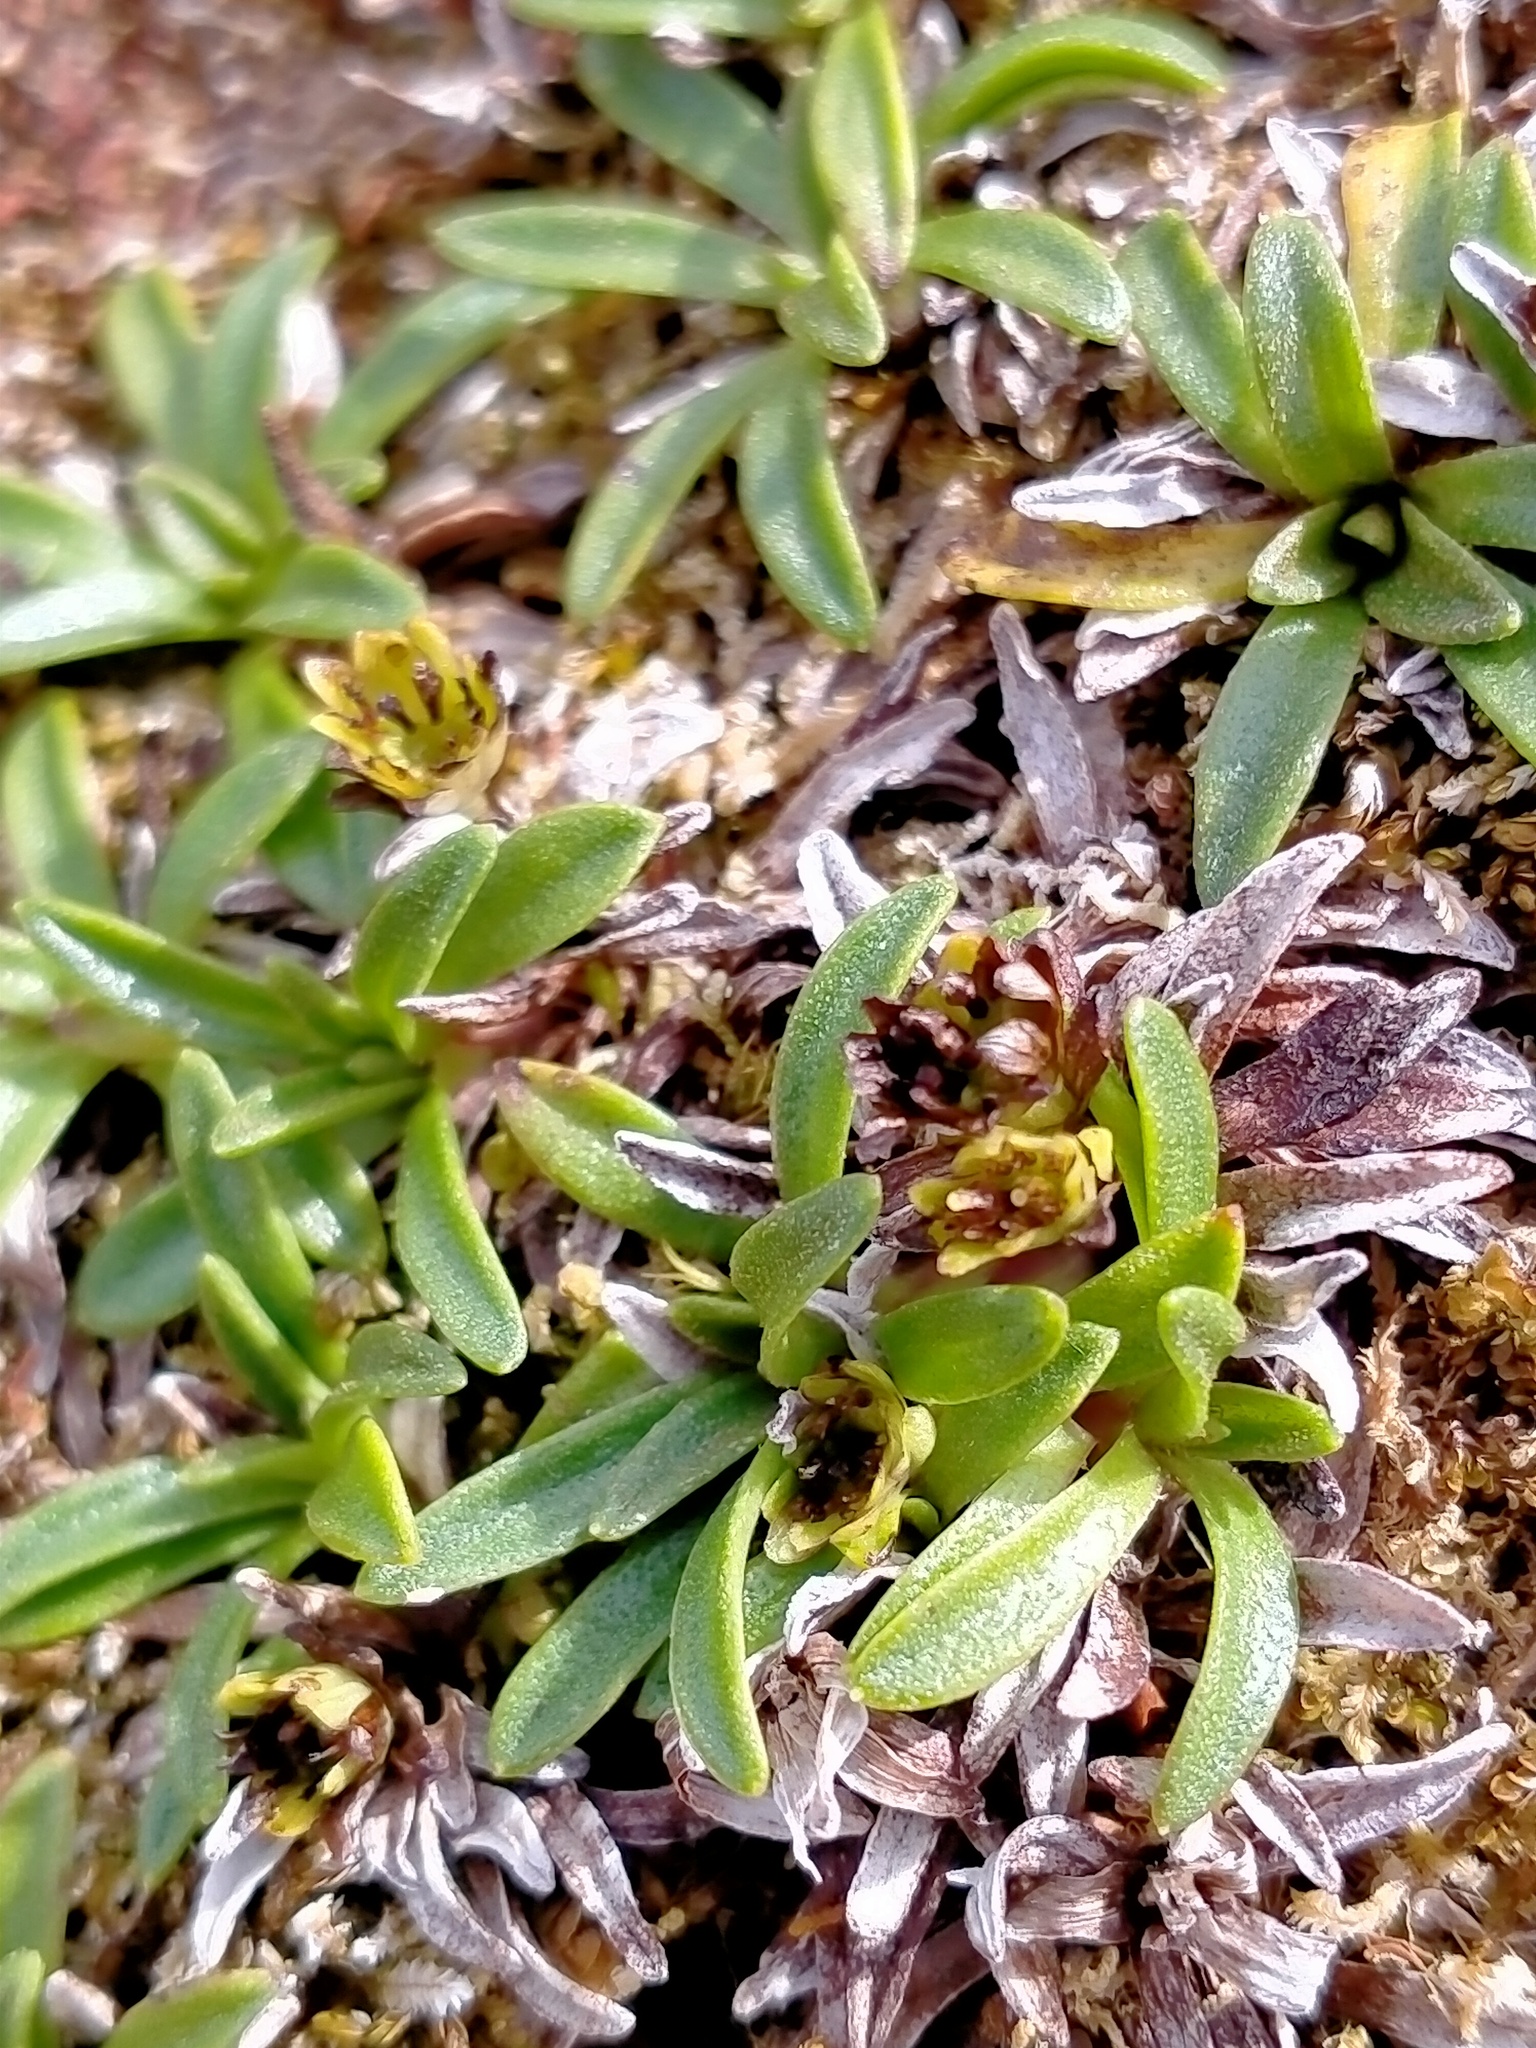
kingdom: Plantae
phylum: Tracheophyta
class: Magnoliopsida
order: Asterales
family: Asteraceae
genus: Abrotanella
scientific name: Abrotanella spathulata
